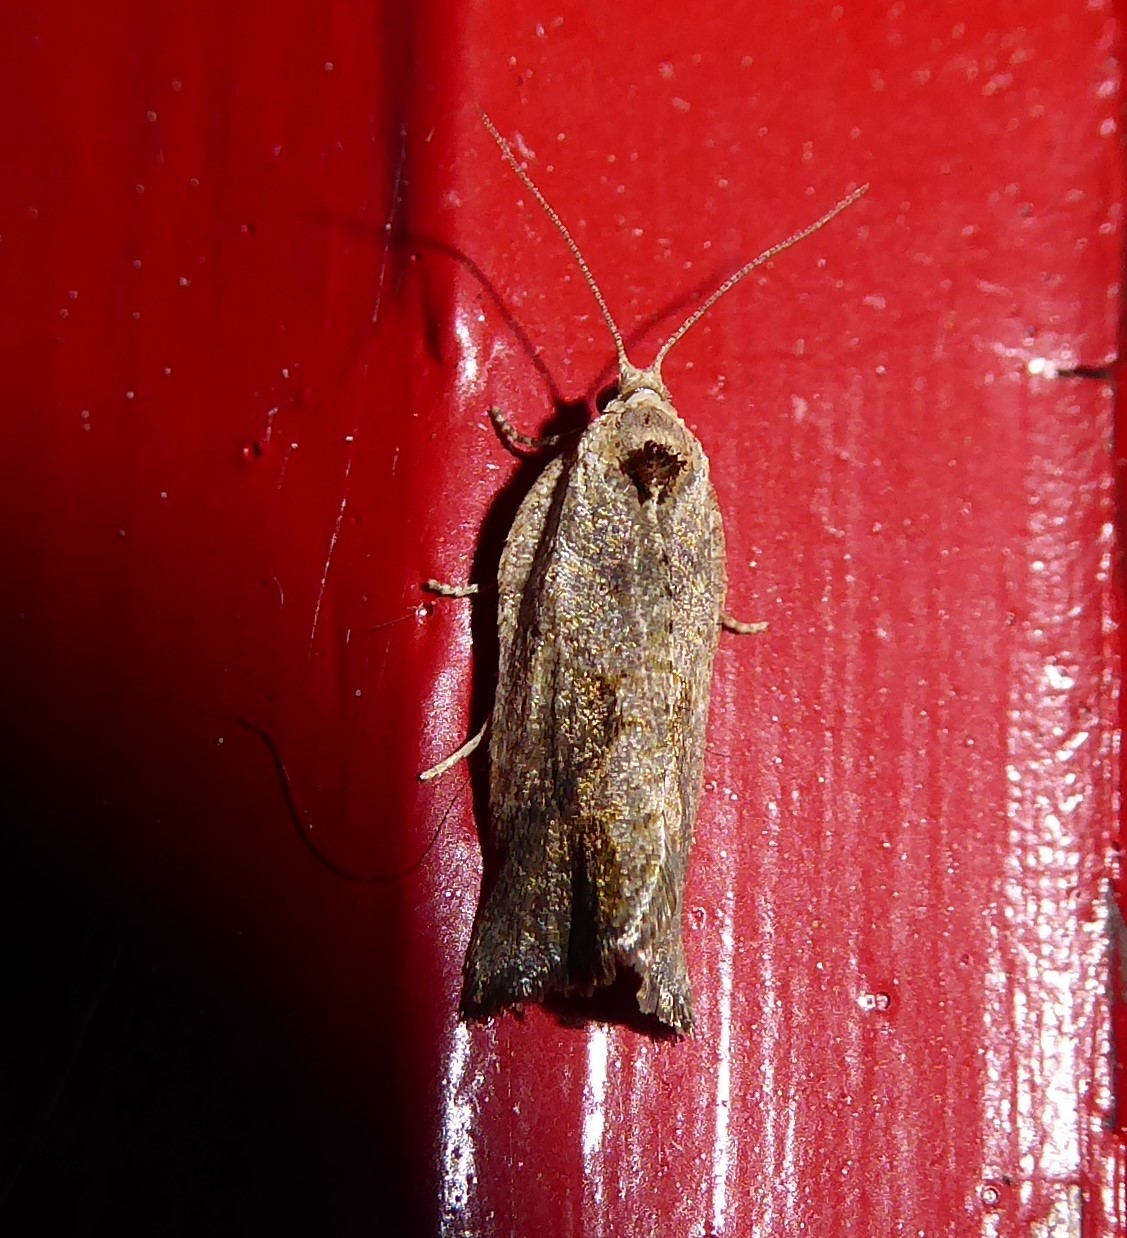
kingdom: Animalia
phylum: Arthropoda
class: Insecta
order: Lepidoptera
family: Tortricidae
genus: Pyrgotis
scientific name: Pyrgotis plagiatana
